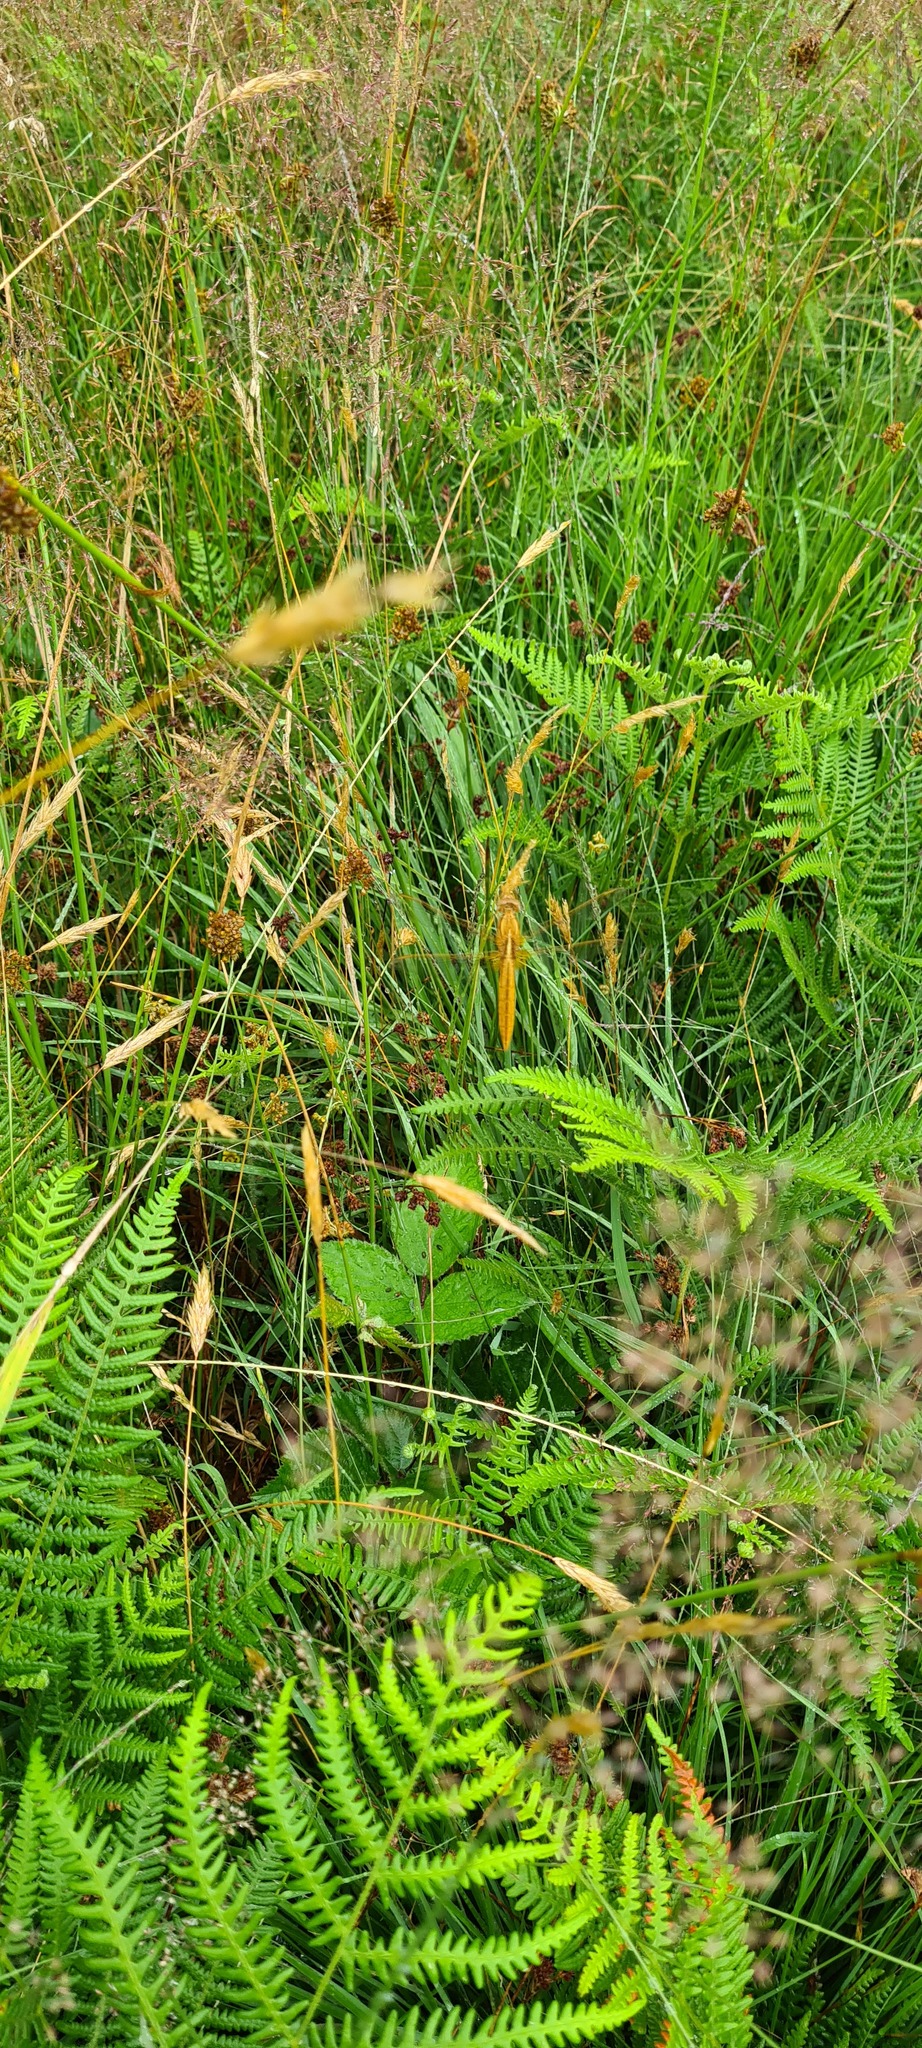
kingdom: Animalia
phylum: Arthropoda
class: Insecta
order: Odonata
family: Libellulidae
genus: Crocothemis
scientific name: Crocothemis erythraea
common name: Scarlet dragonfly
